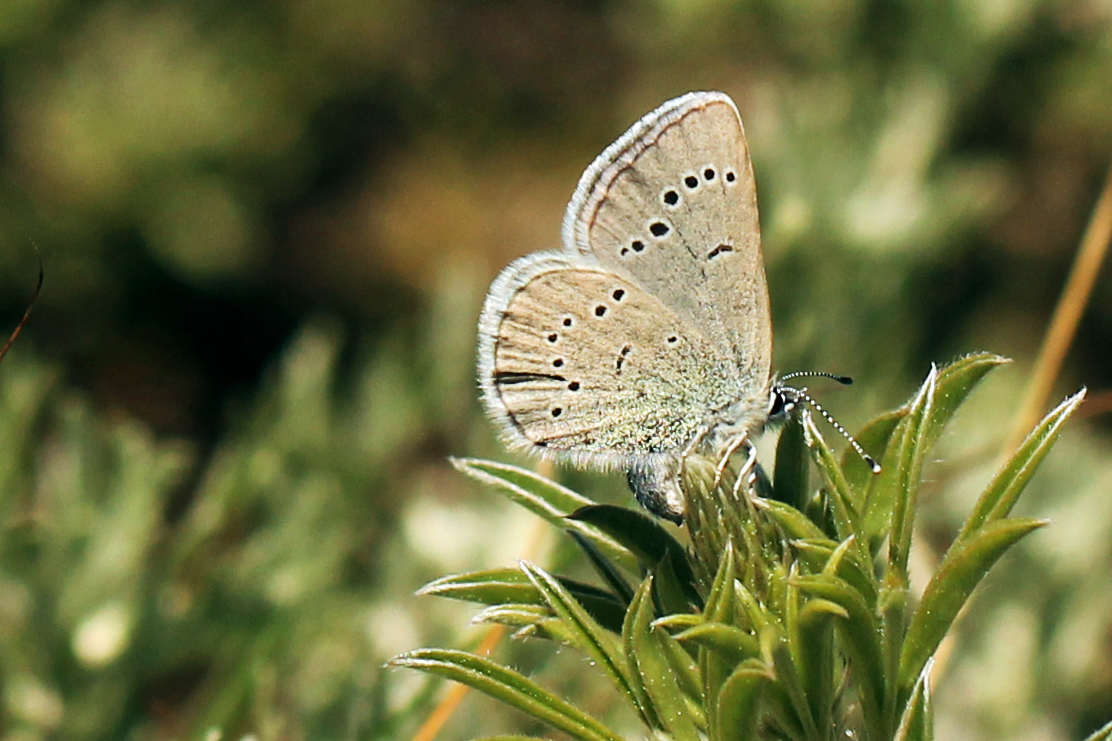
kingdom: Animalia
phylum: Arthropoda
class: Insecta
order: Lepidoptera
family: Lycaenidae
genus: Glaucopsyche
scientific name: Glaucopsyche lygdamus
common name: Silvery blue
